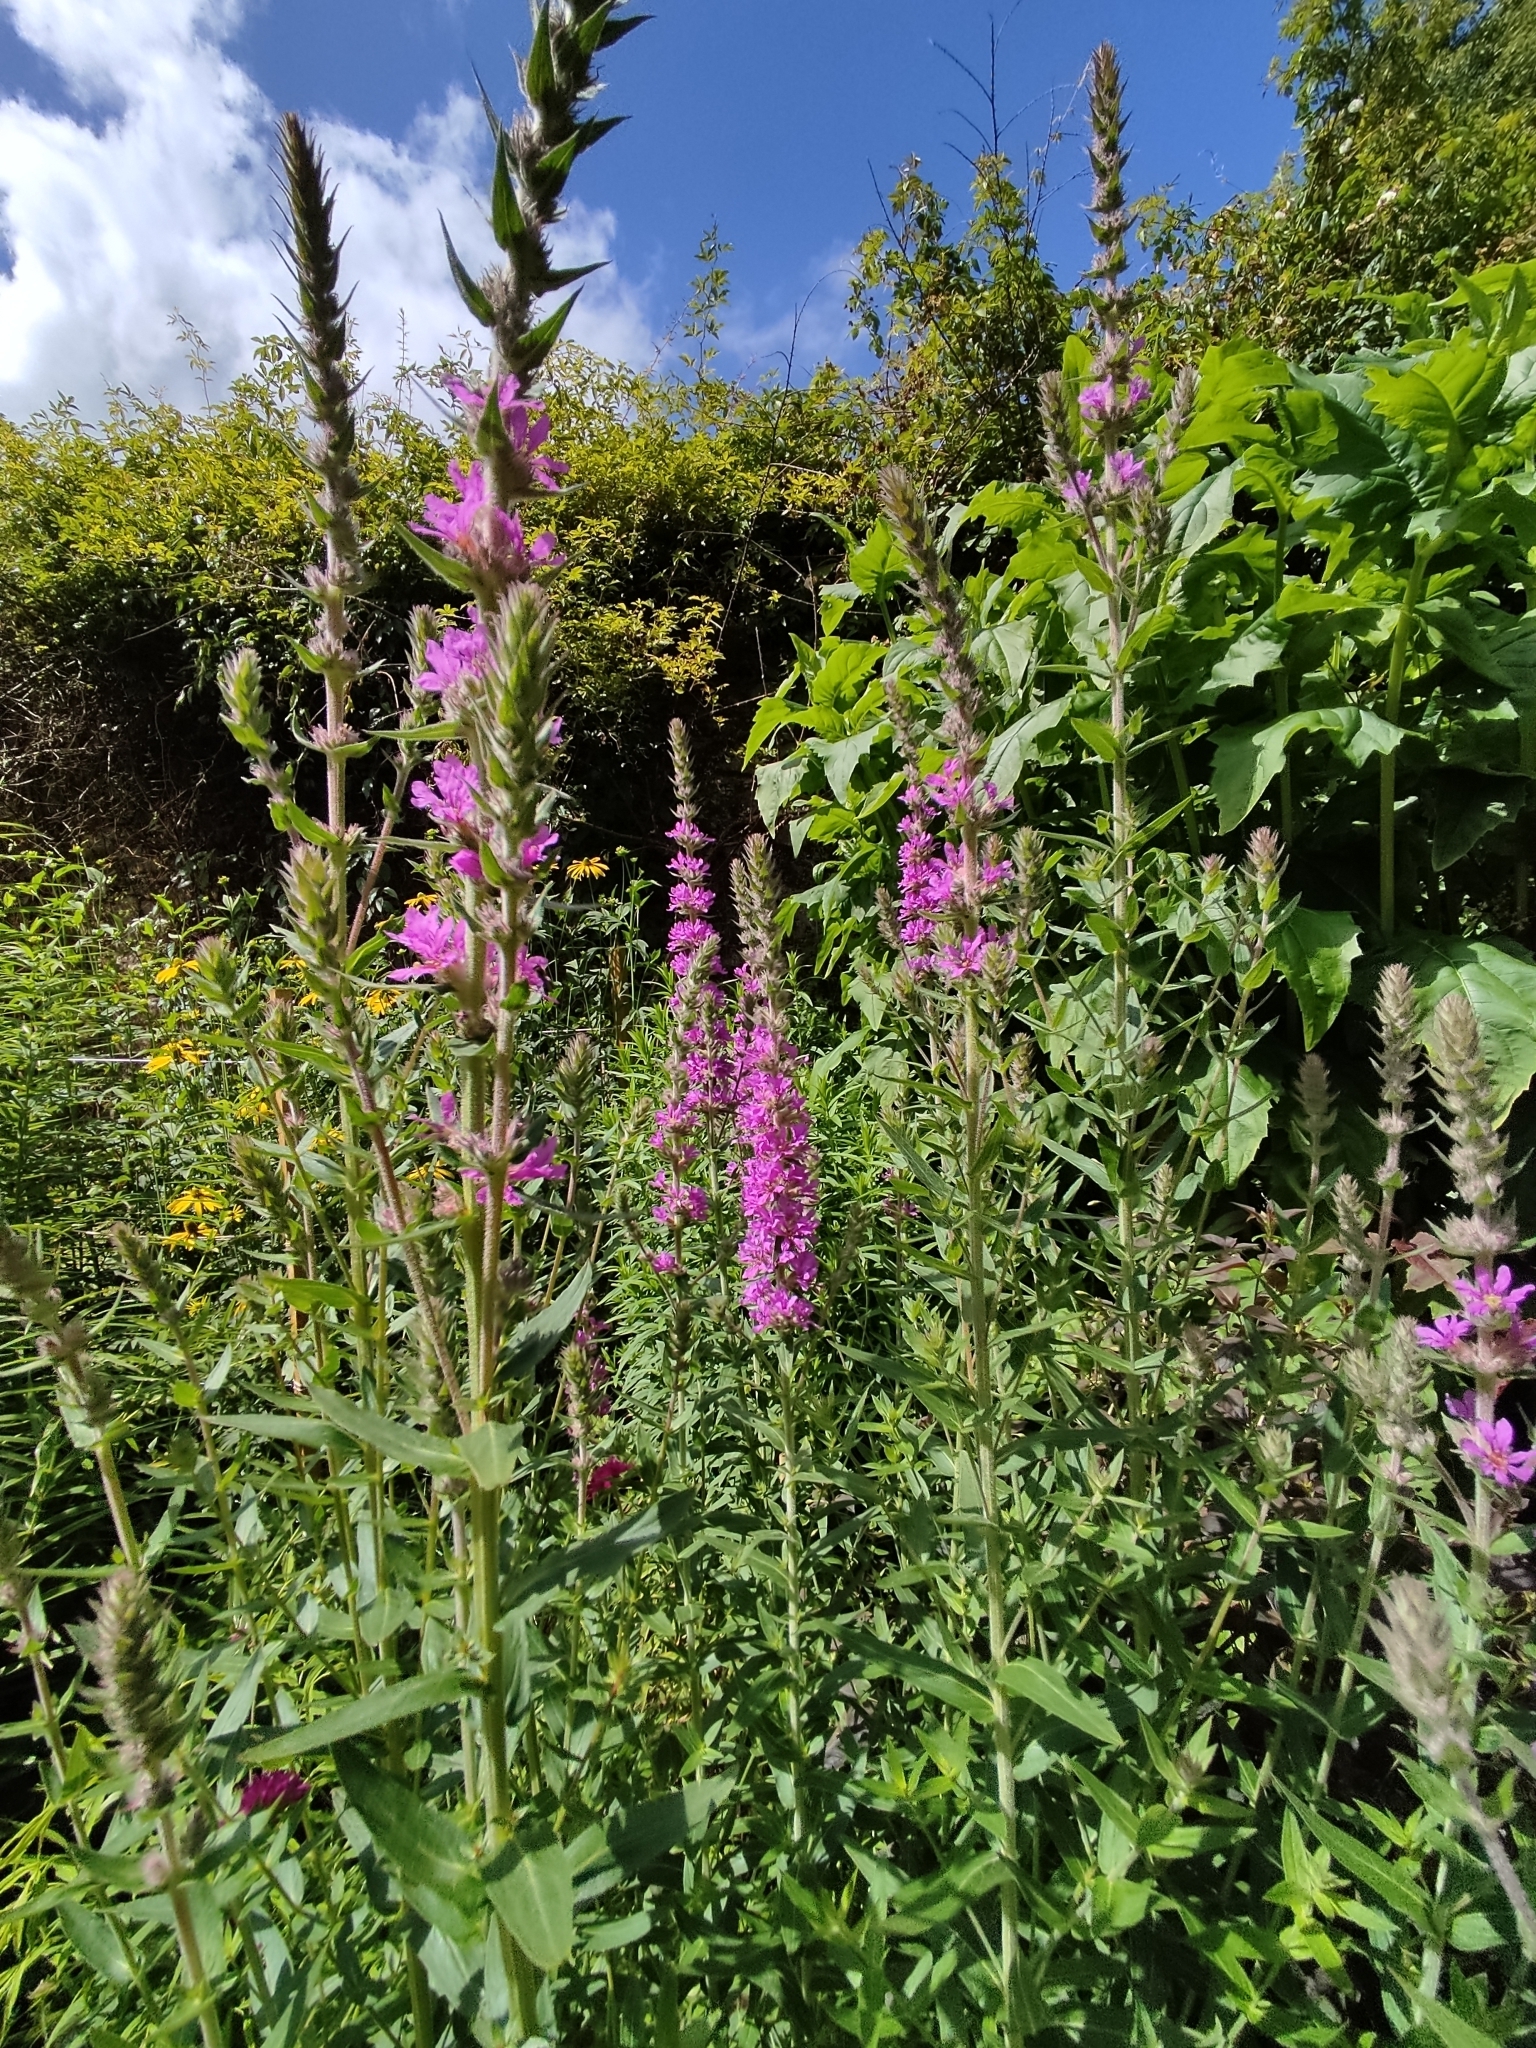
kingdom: Plantae
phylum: Tracheophyta
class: Magnoliopsida
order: Myrtales
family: Lythraceae
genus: Lythrum
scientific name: Lythrum salicaria
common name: Purple loosestrife
